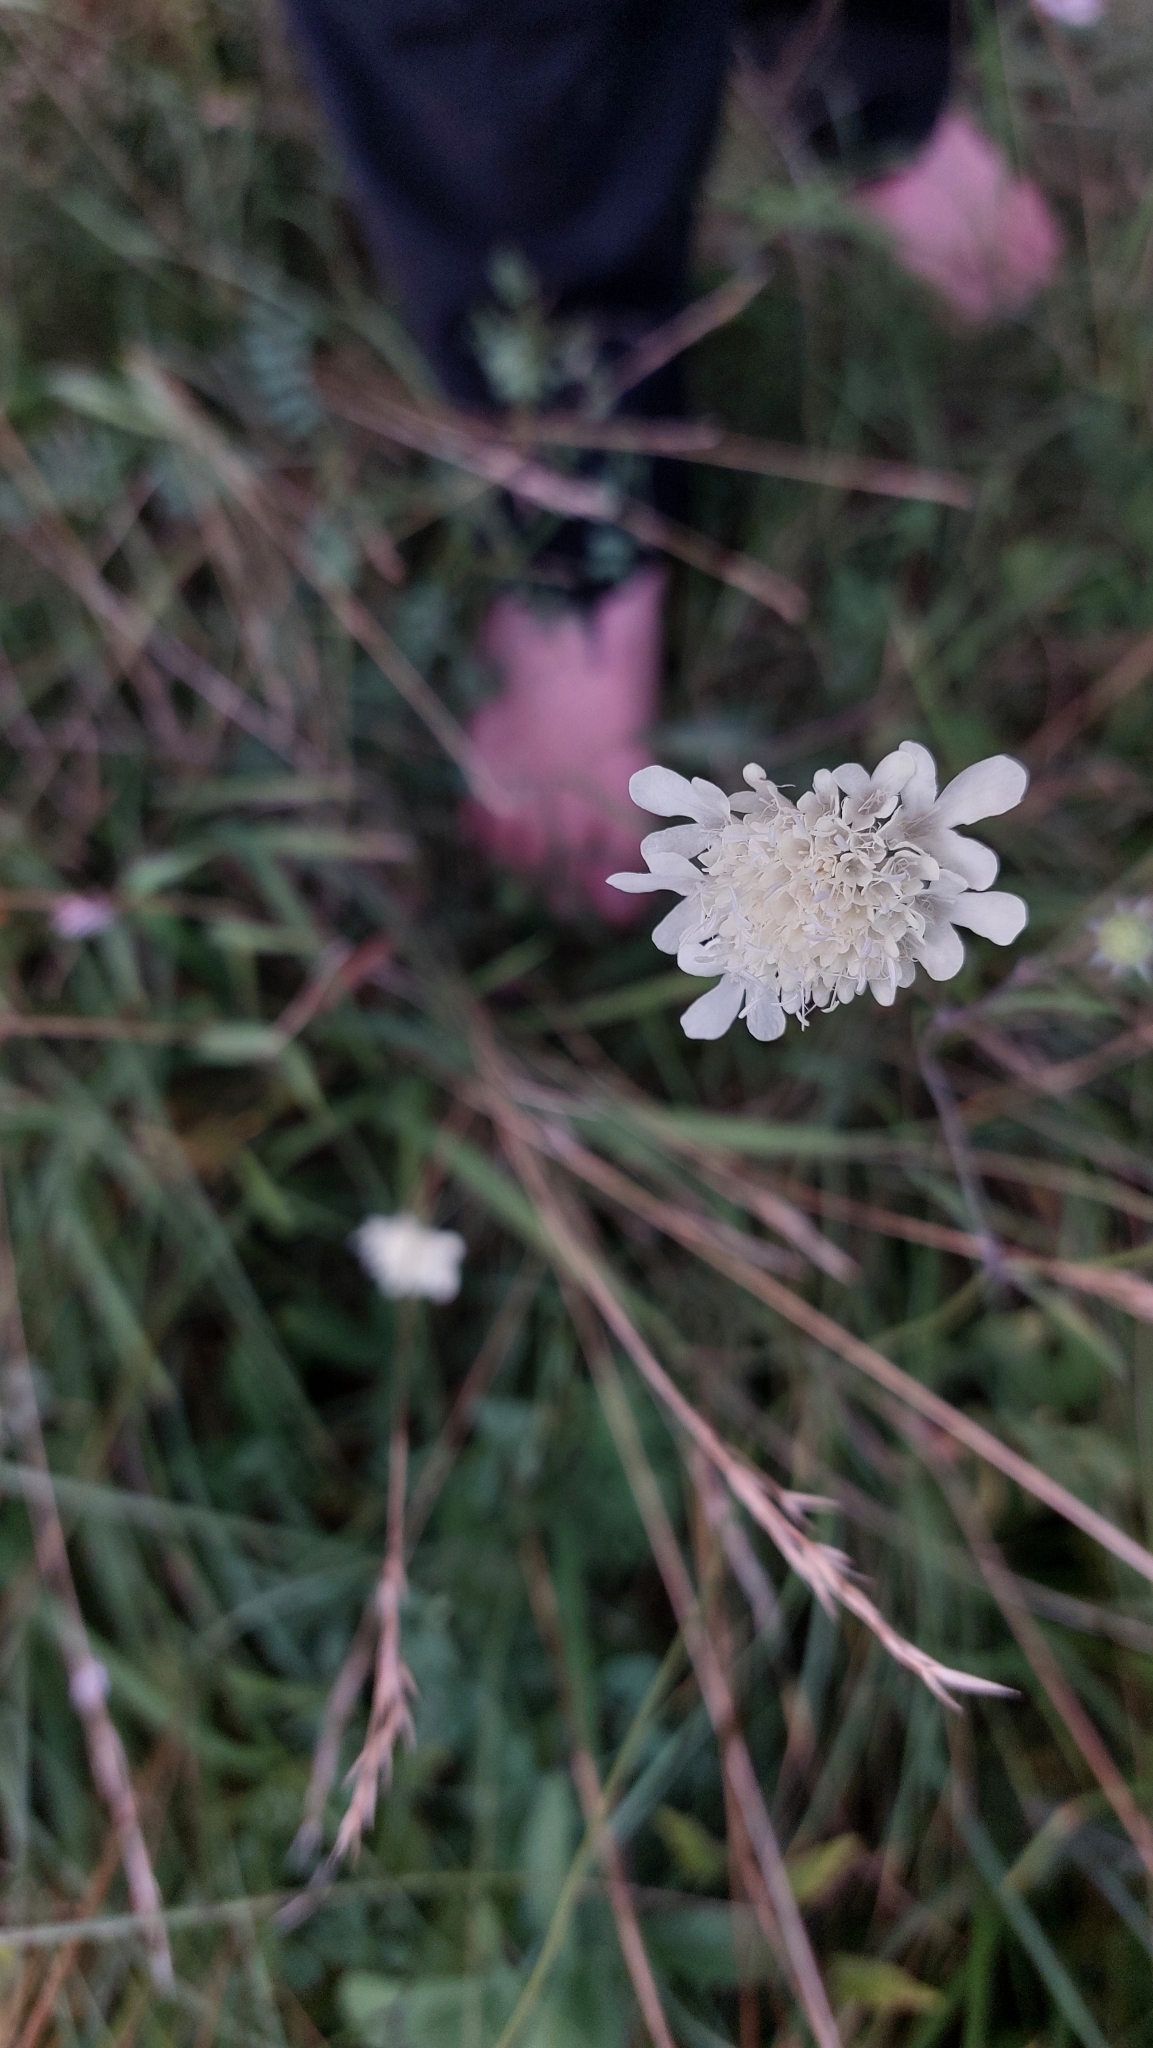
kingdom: Plantae
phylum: Tracheophyta
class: Magnoliopsida
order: Dipsacales
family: Caprifoliaceae
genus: Scabiosa
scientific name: Scabiosa ochroleuca
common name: Cream pincushions
